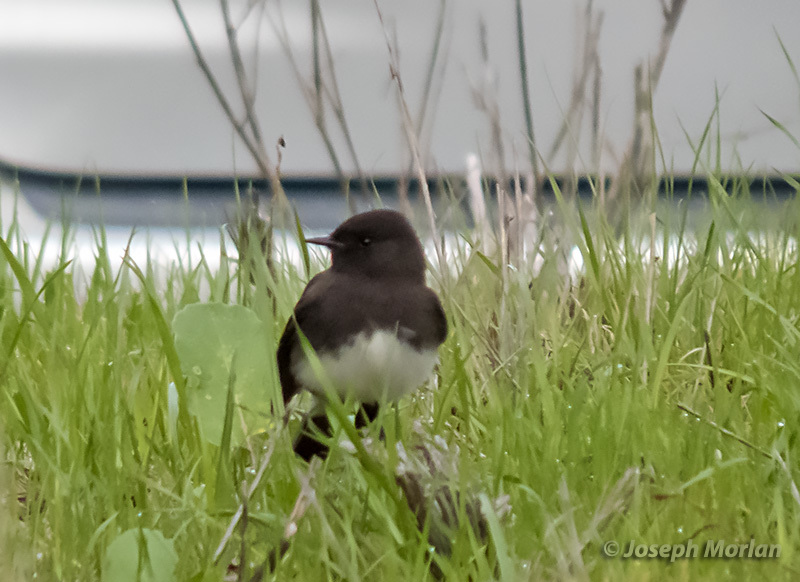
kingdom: Animalia
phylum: Chordata
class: Aves
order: Passeriformes
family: Tyrannidae
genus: Sayornis
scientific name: Sayornis nigricans
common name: Black phoebe
